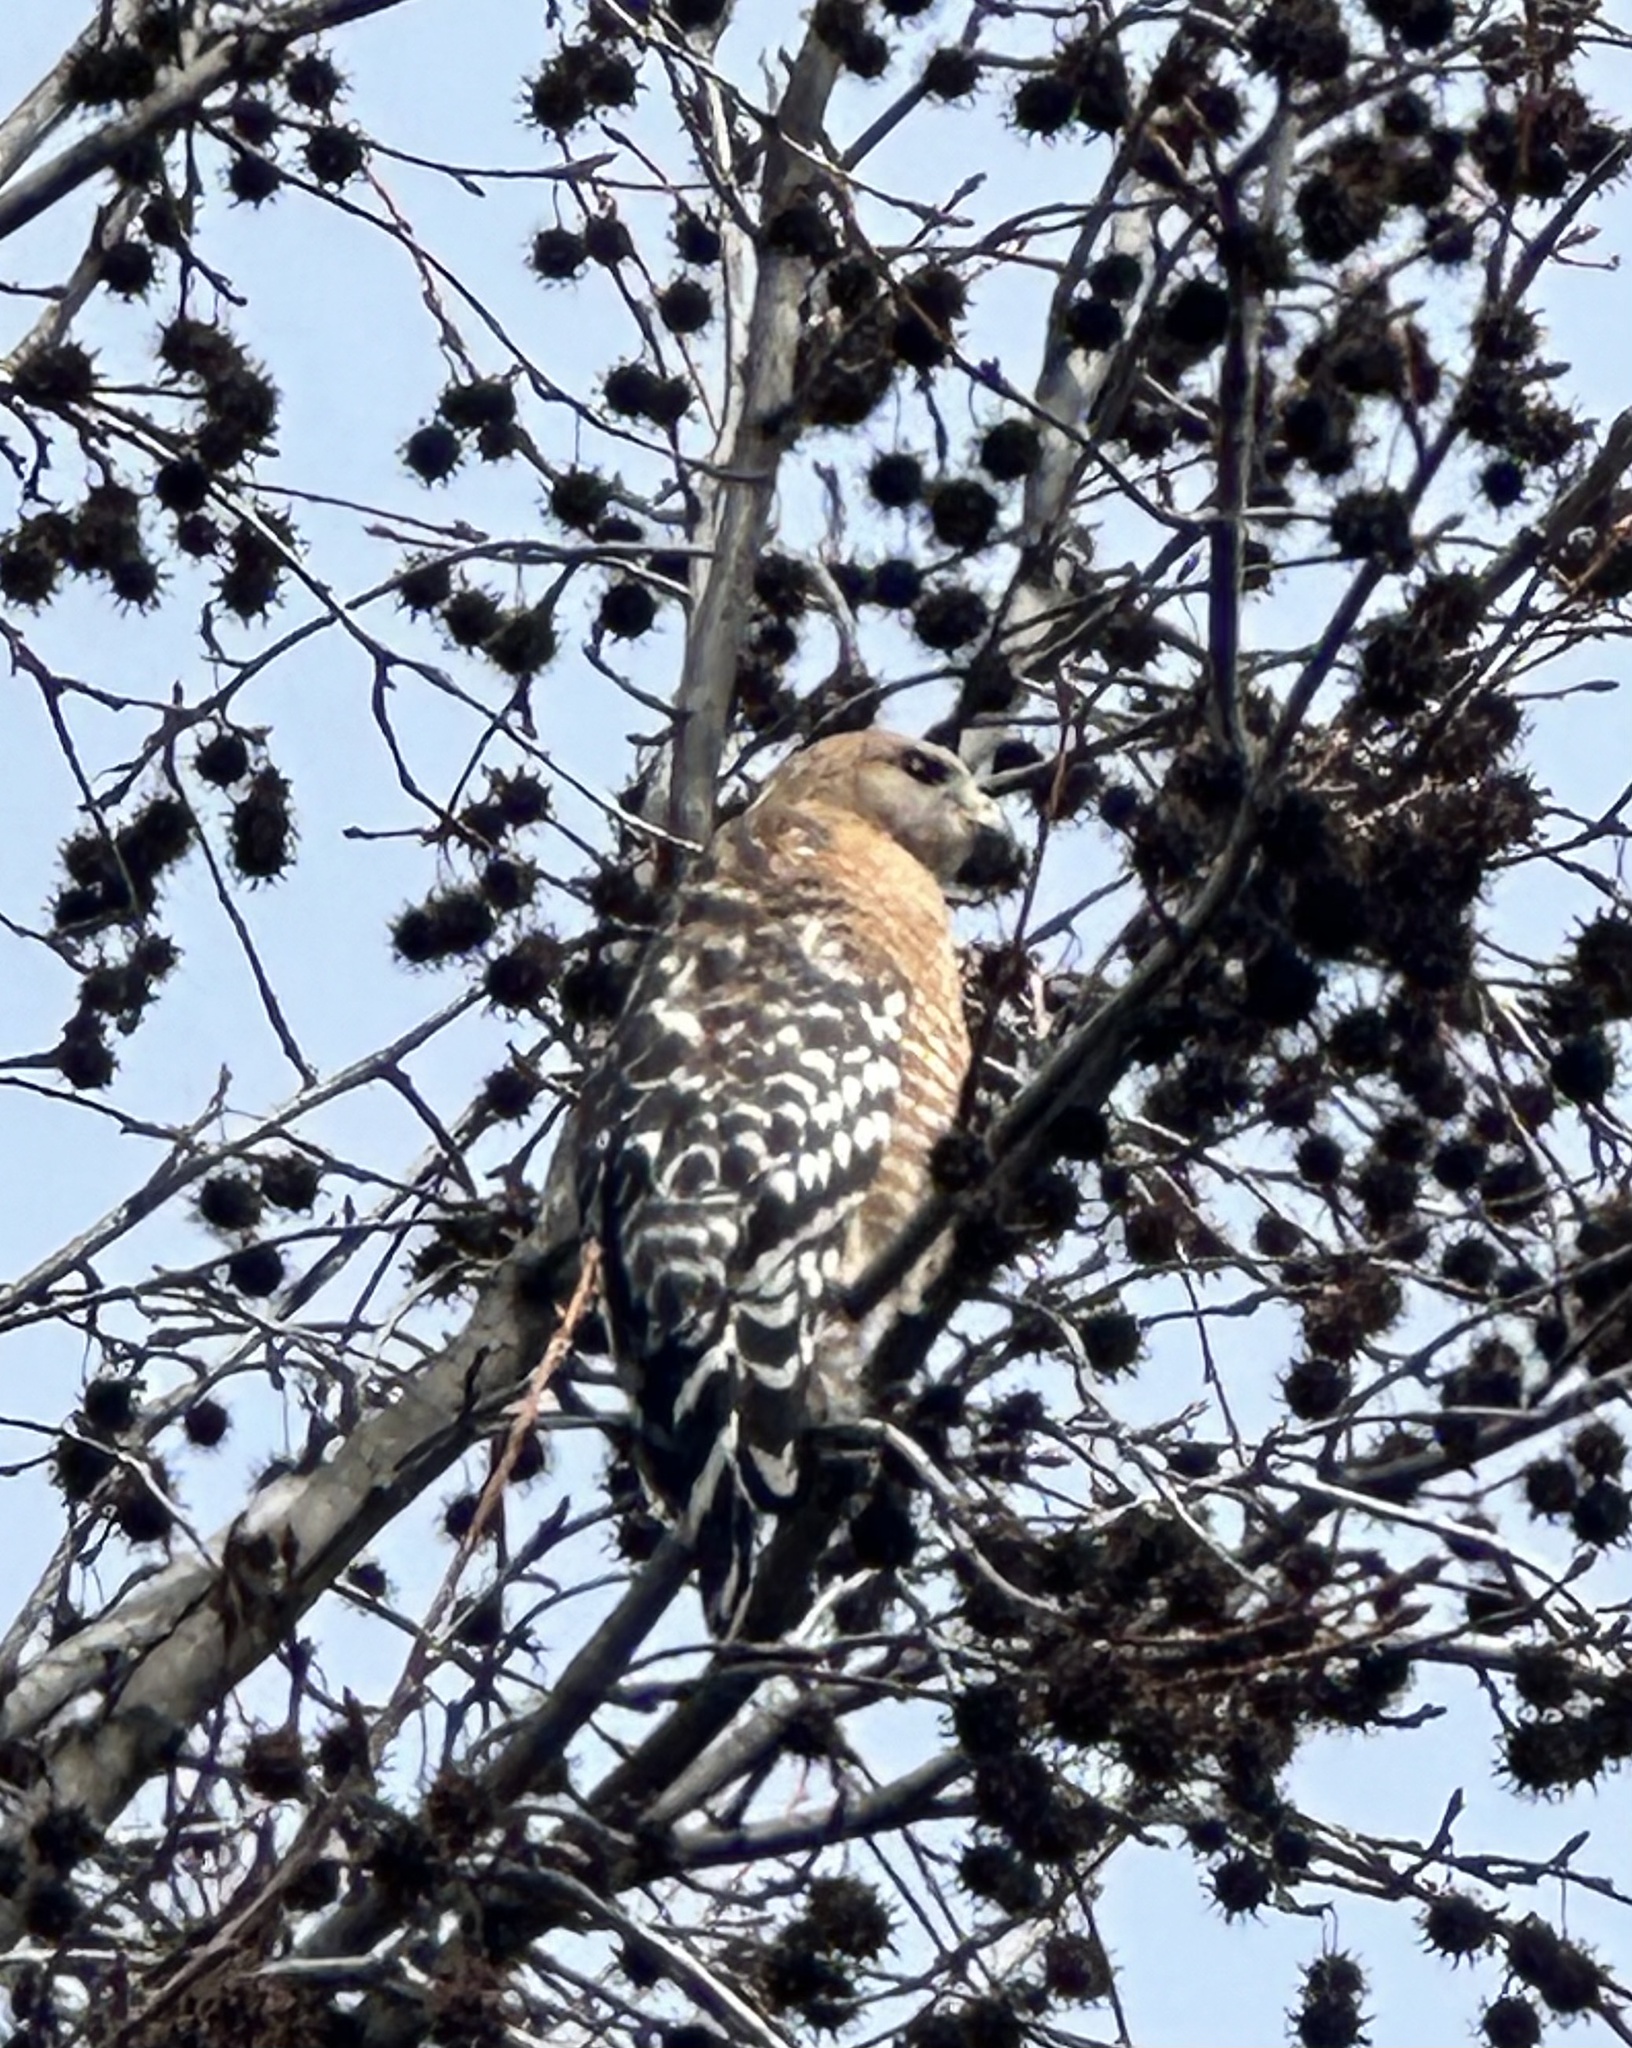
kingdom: Animalia
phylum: Chordata
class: Aves
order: Accipitriformes
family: Accipitridae
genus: Buteo
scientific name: Buteo lineatus
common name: Red-shouldered hawk
